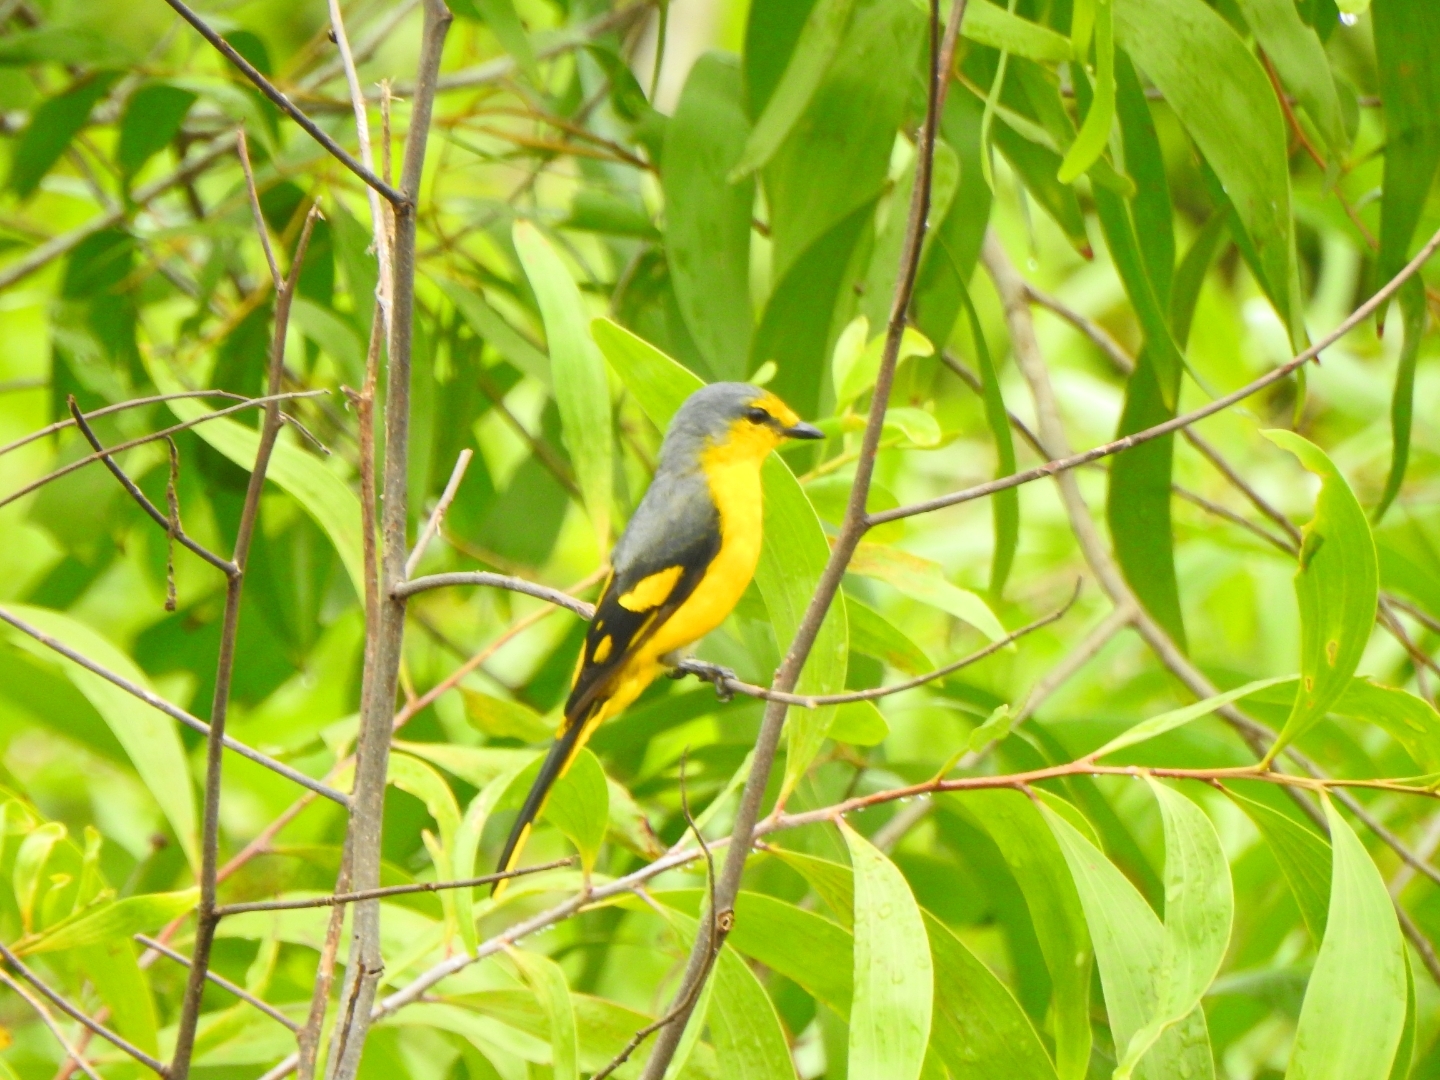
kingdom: Animalia
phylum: Chordata
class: Aves
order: Passeriformes
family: Campephagidae
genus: Pericrocotus
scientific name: Pericrocotus flammeus
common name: Orange minivet
